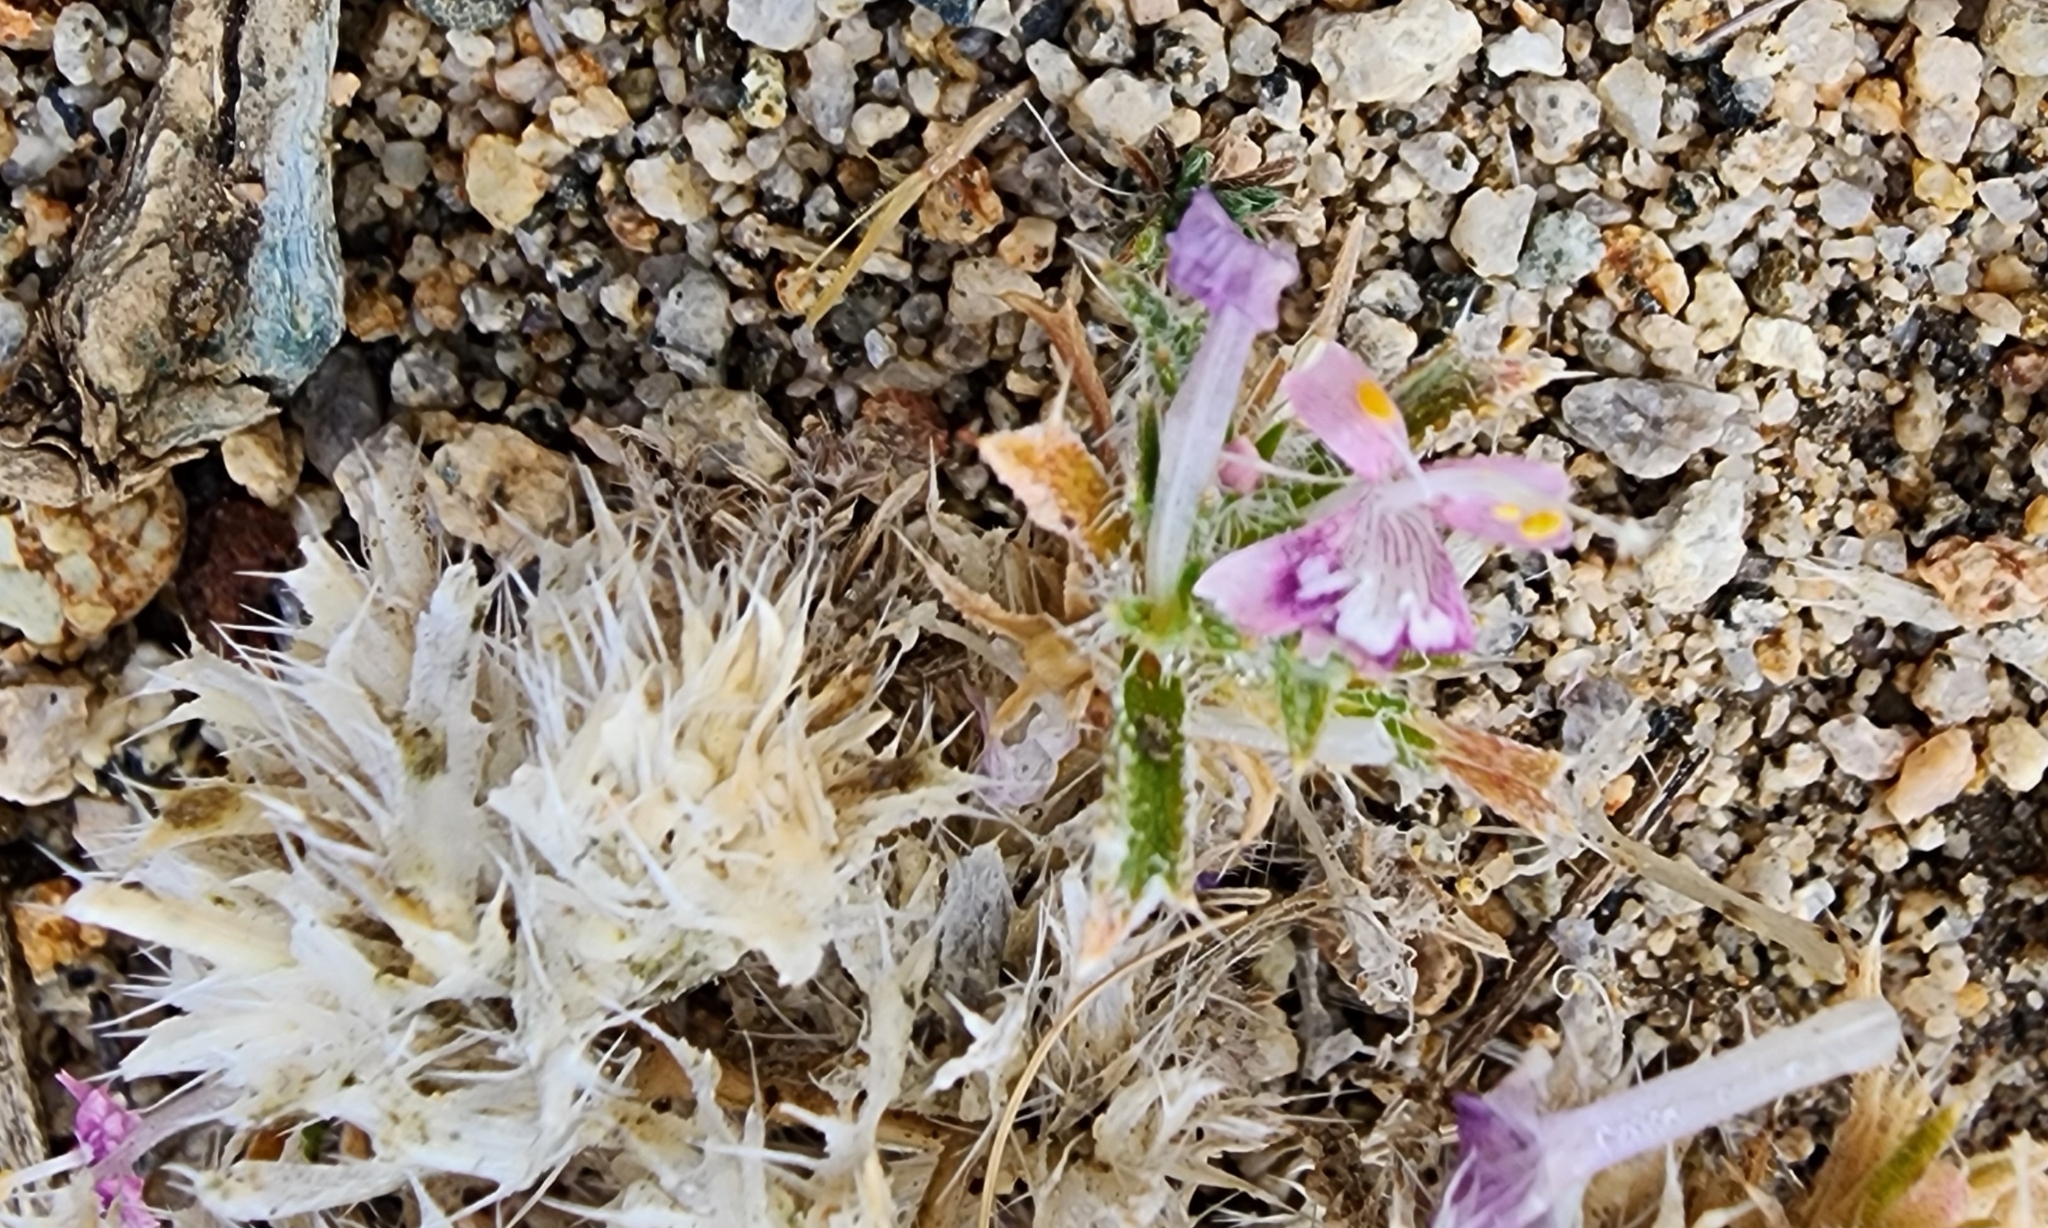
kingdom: Plantae
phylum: Tracheophyta
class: Magnoliopsida
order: Ericales
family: Polemoniaceae
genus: Loeseliastrum
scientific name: Loeseliastrum matthewsii
